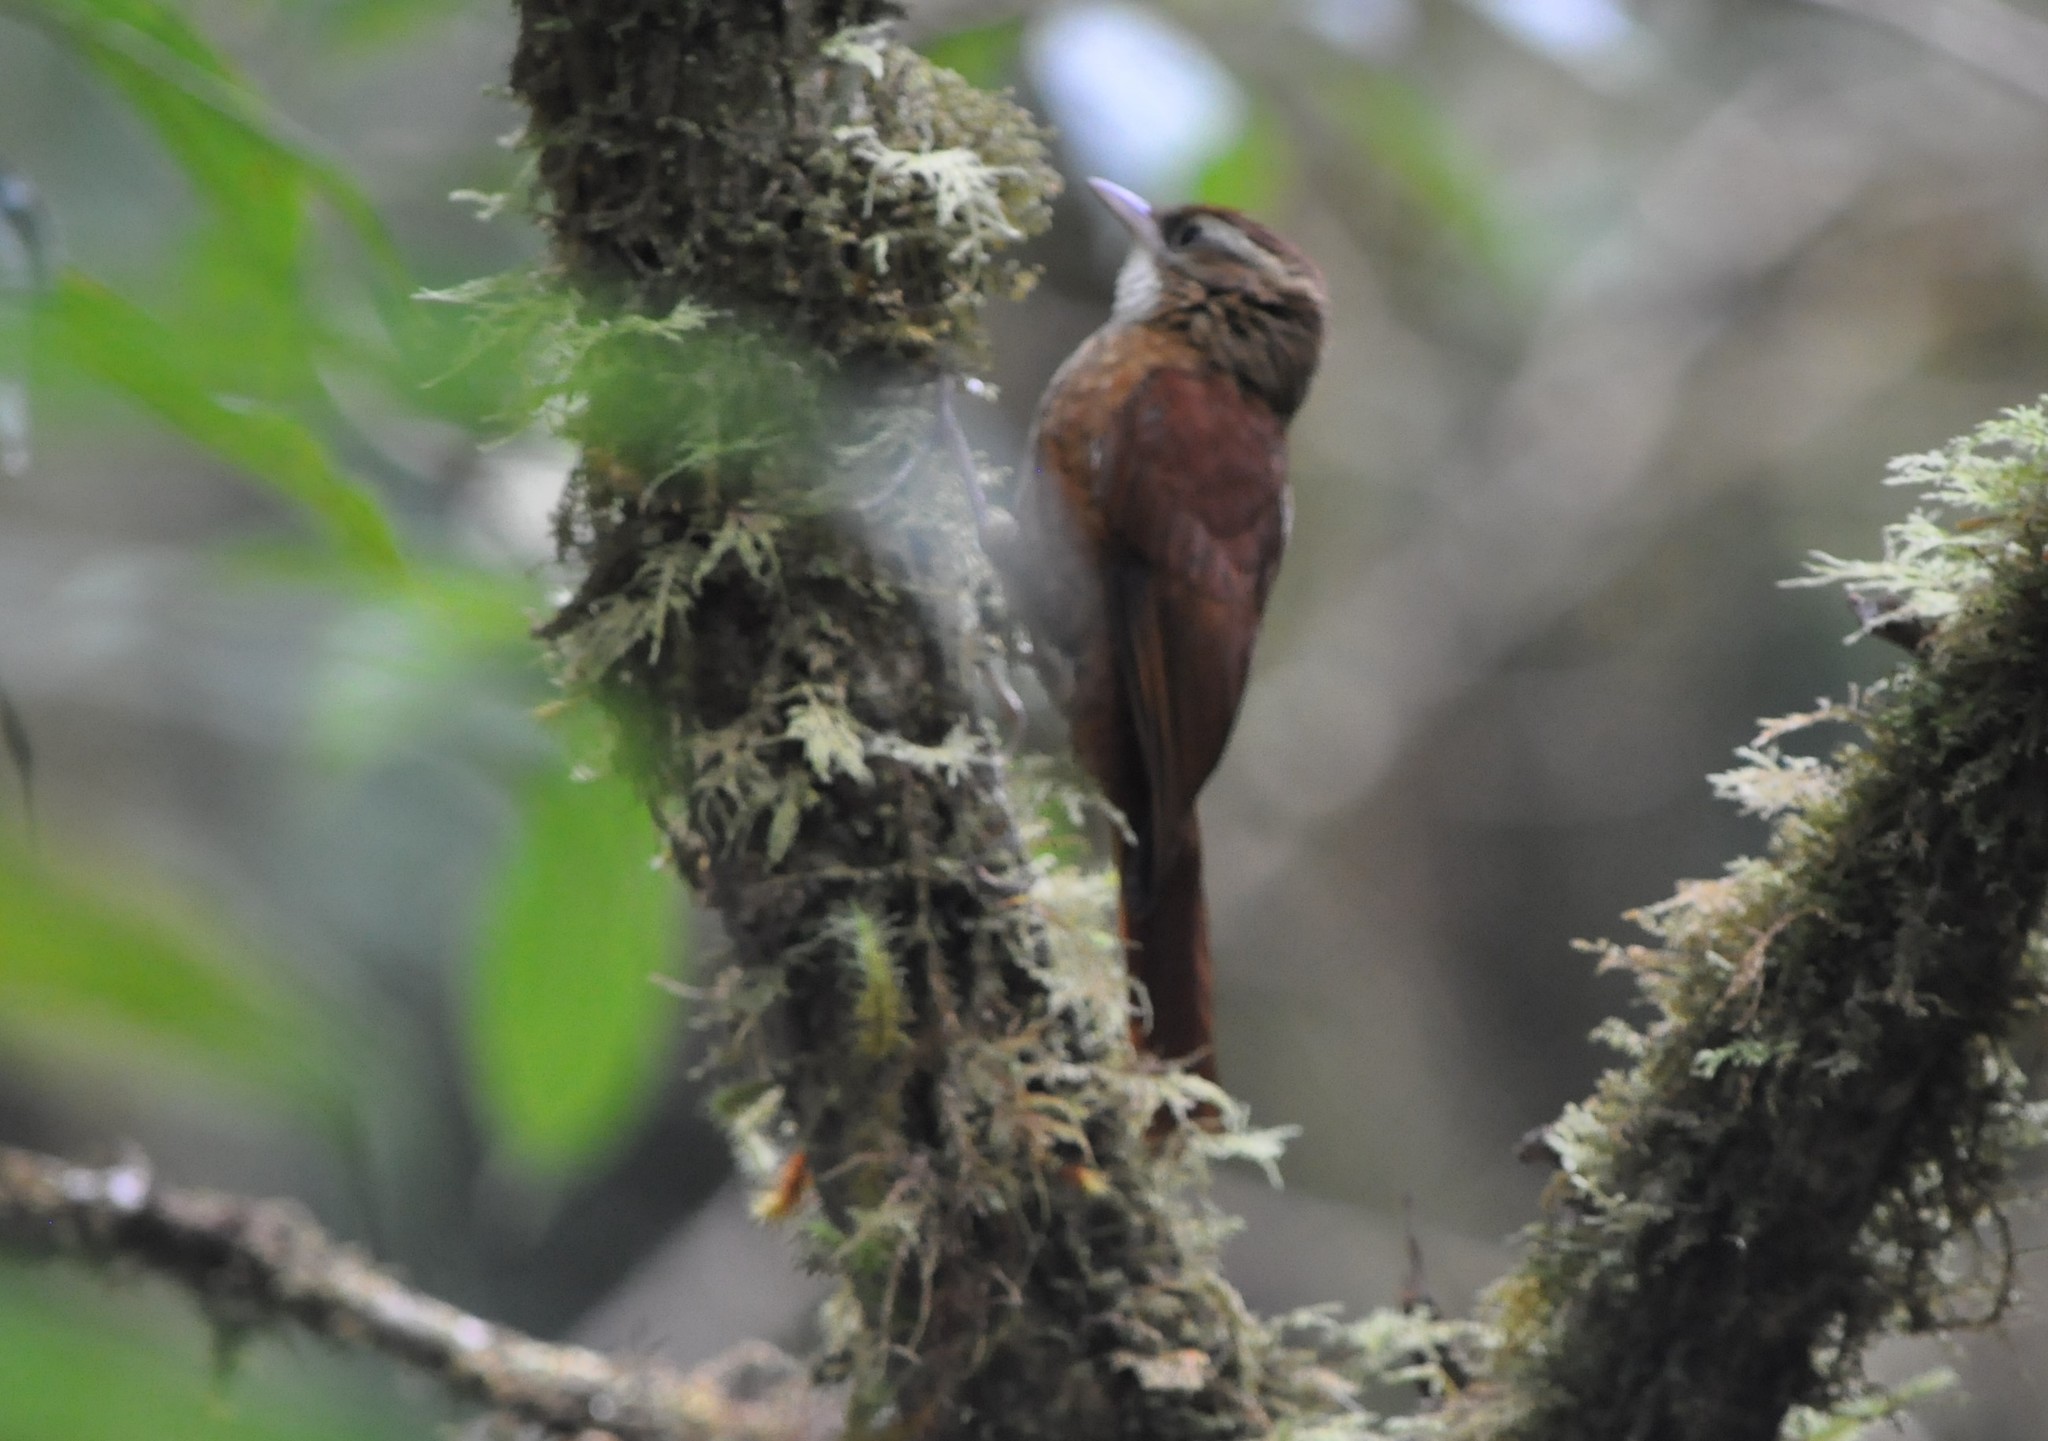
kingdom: Animalia
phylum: Chordata
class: Aves
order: Passeriformes
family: Furnariidae
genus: Margarornis
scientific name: Margarornis rubiginosus
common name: Ruddy treerunner
